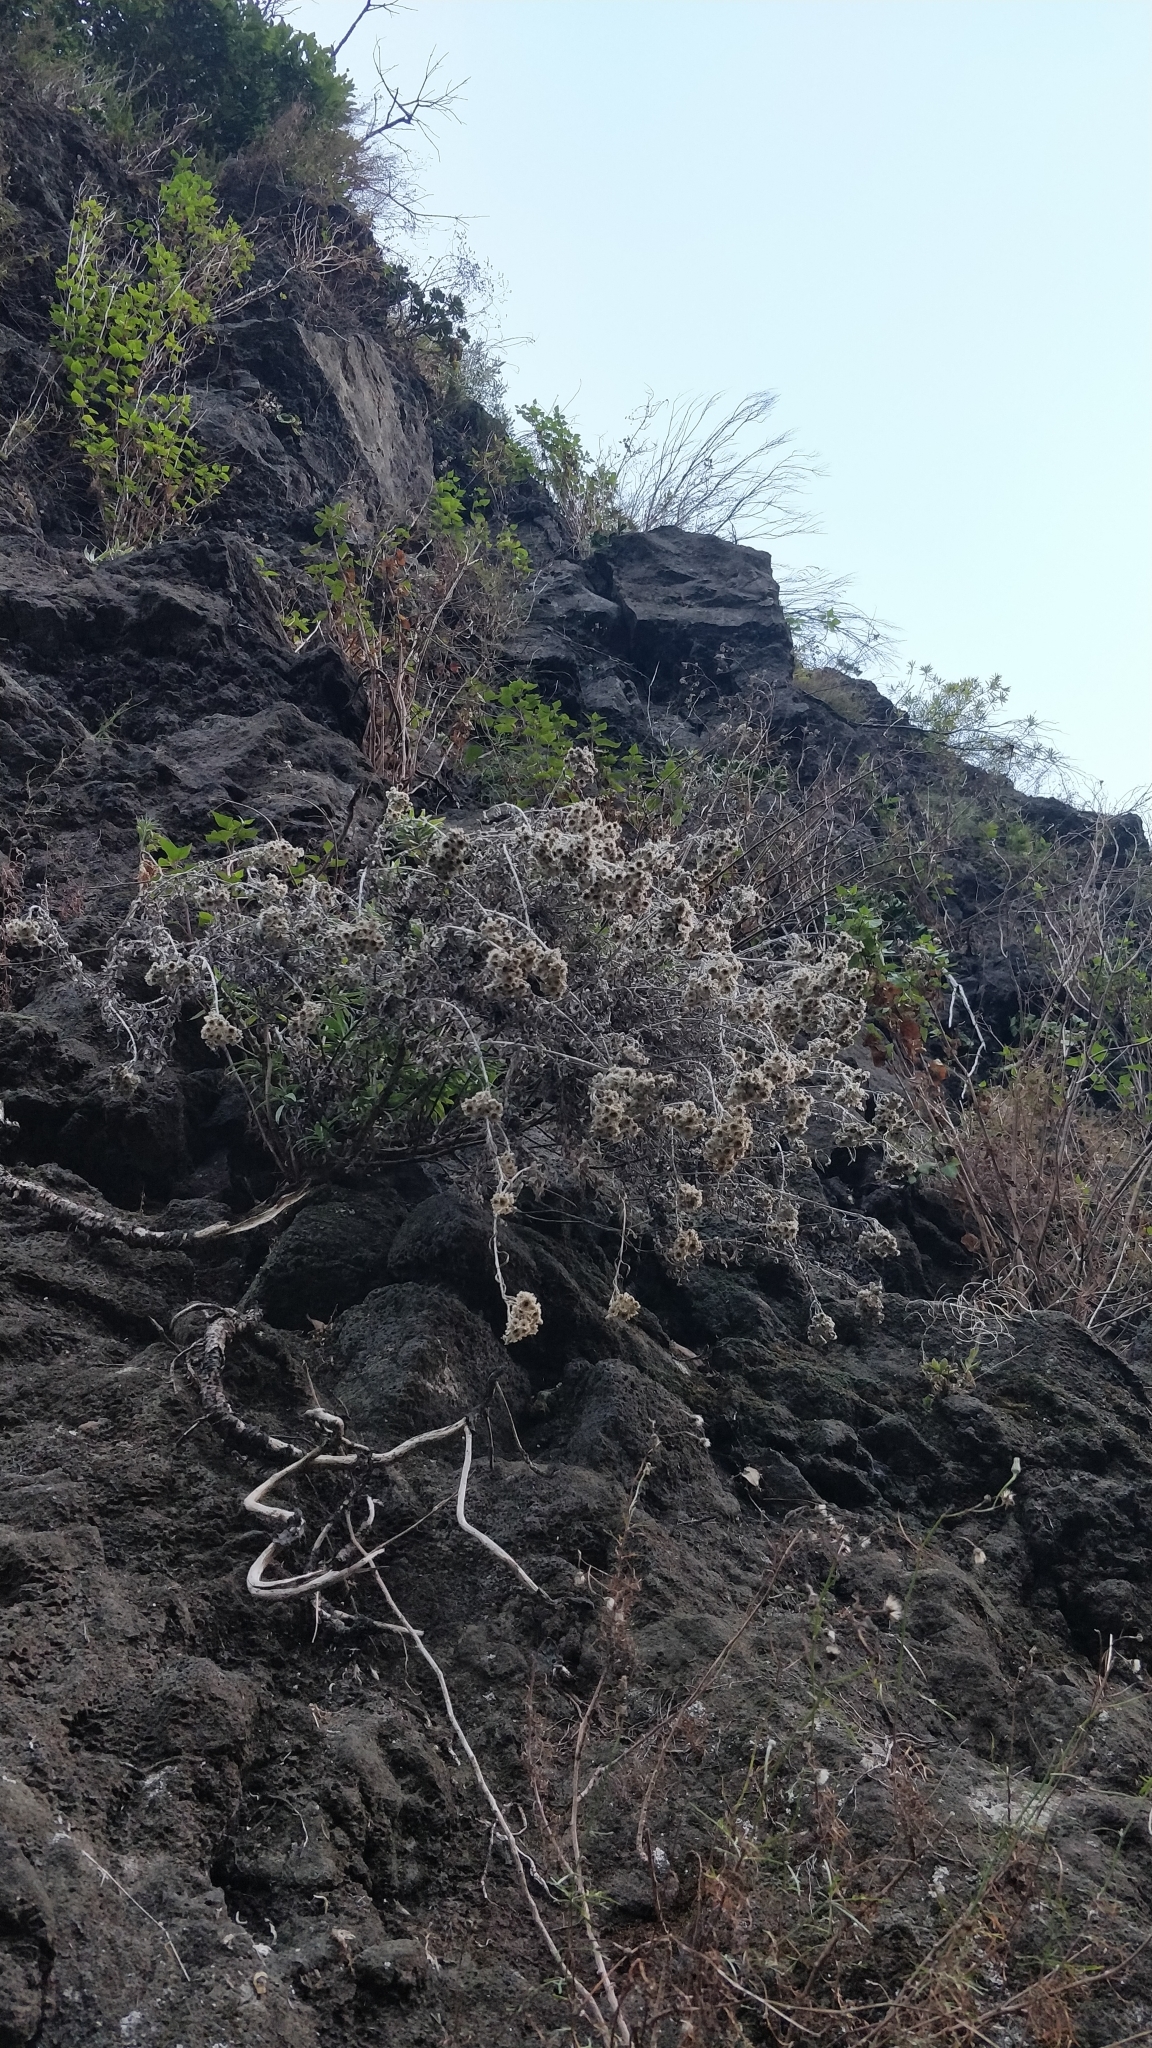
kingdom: Plantae
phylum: Tracheophyta
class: Magnoliopsida
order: Asterales
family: Asteraceae
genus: Helichrysum
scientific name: Helichrysum melaleucum
